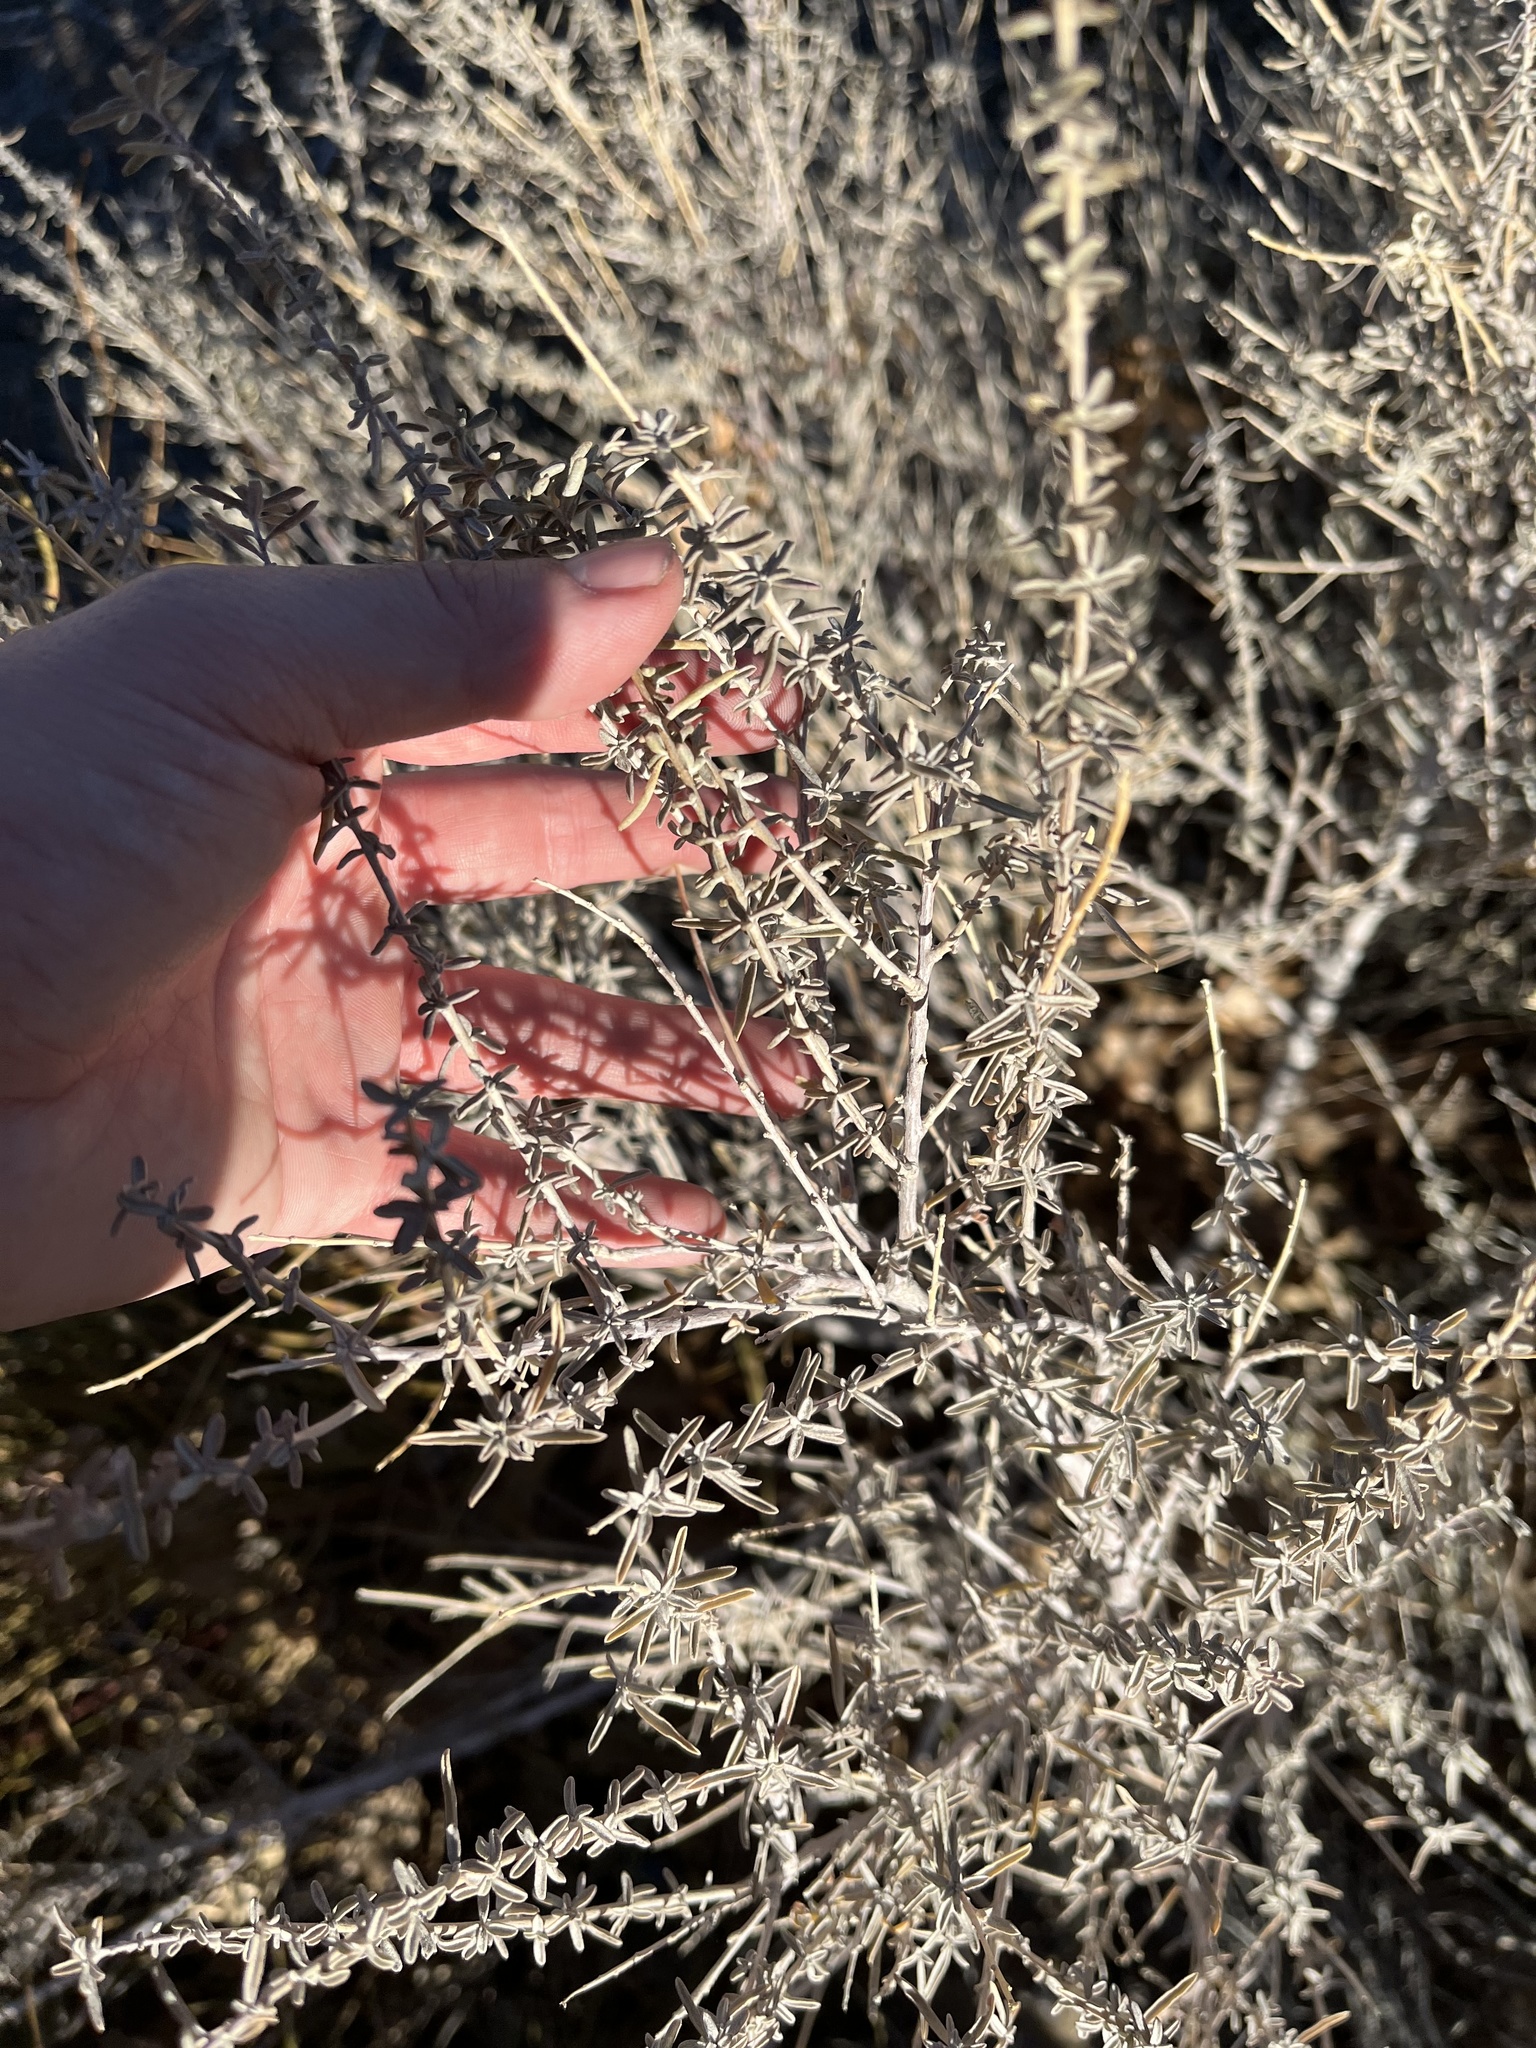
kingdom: Plantae
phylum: Tracheophyta
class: Magnoliopsida
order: Caryophyllales
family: Amaranthaceae
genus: Atriplex
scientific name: Atriplex canescens
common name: Four-wing saltbush
